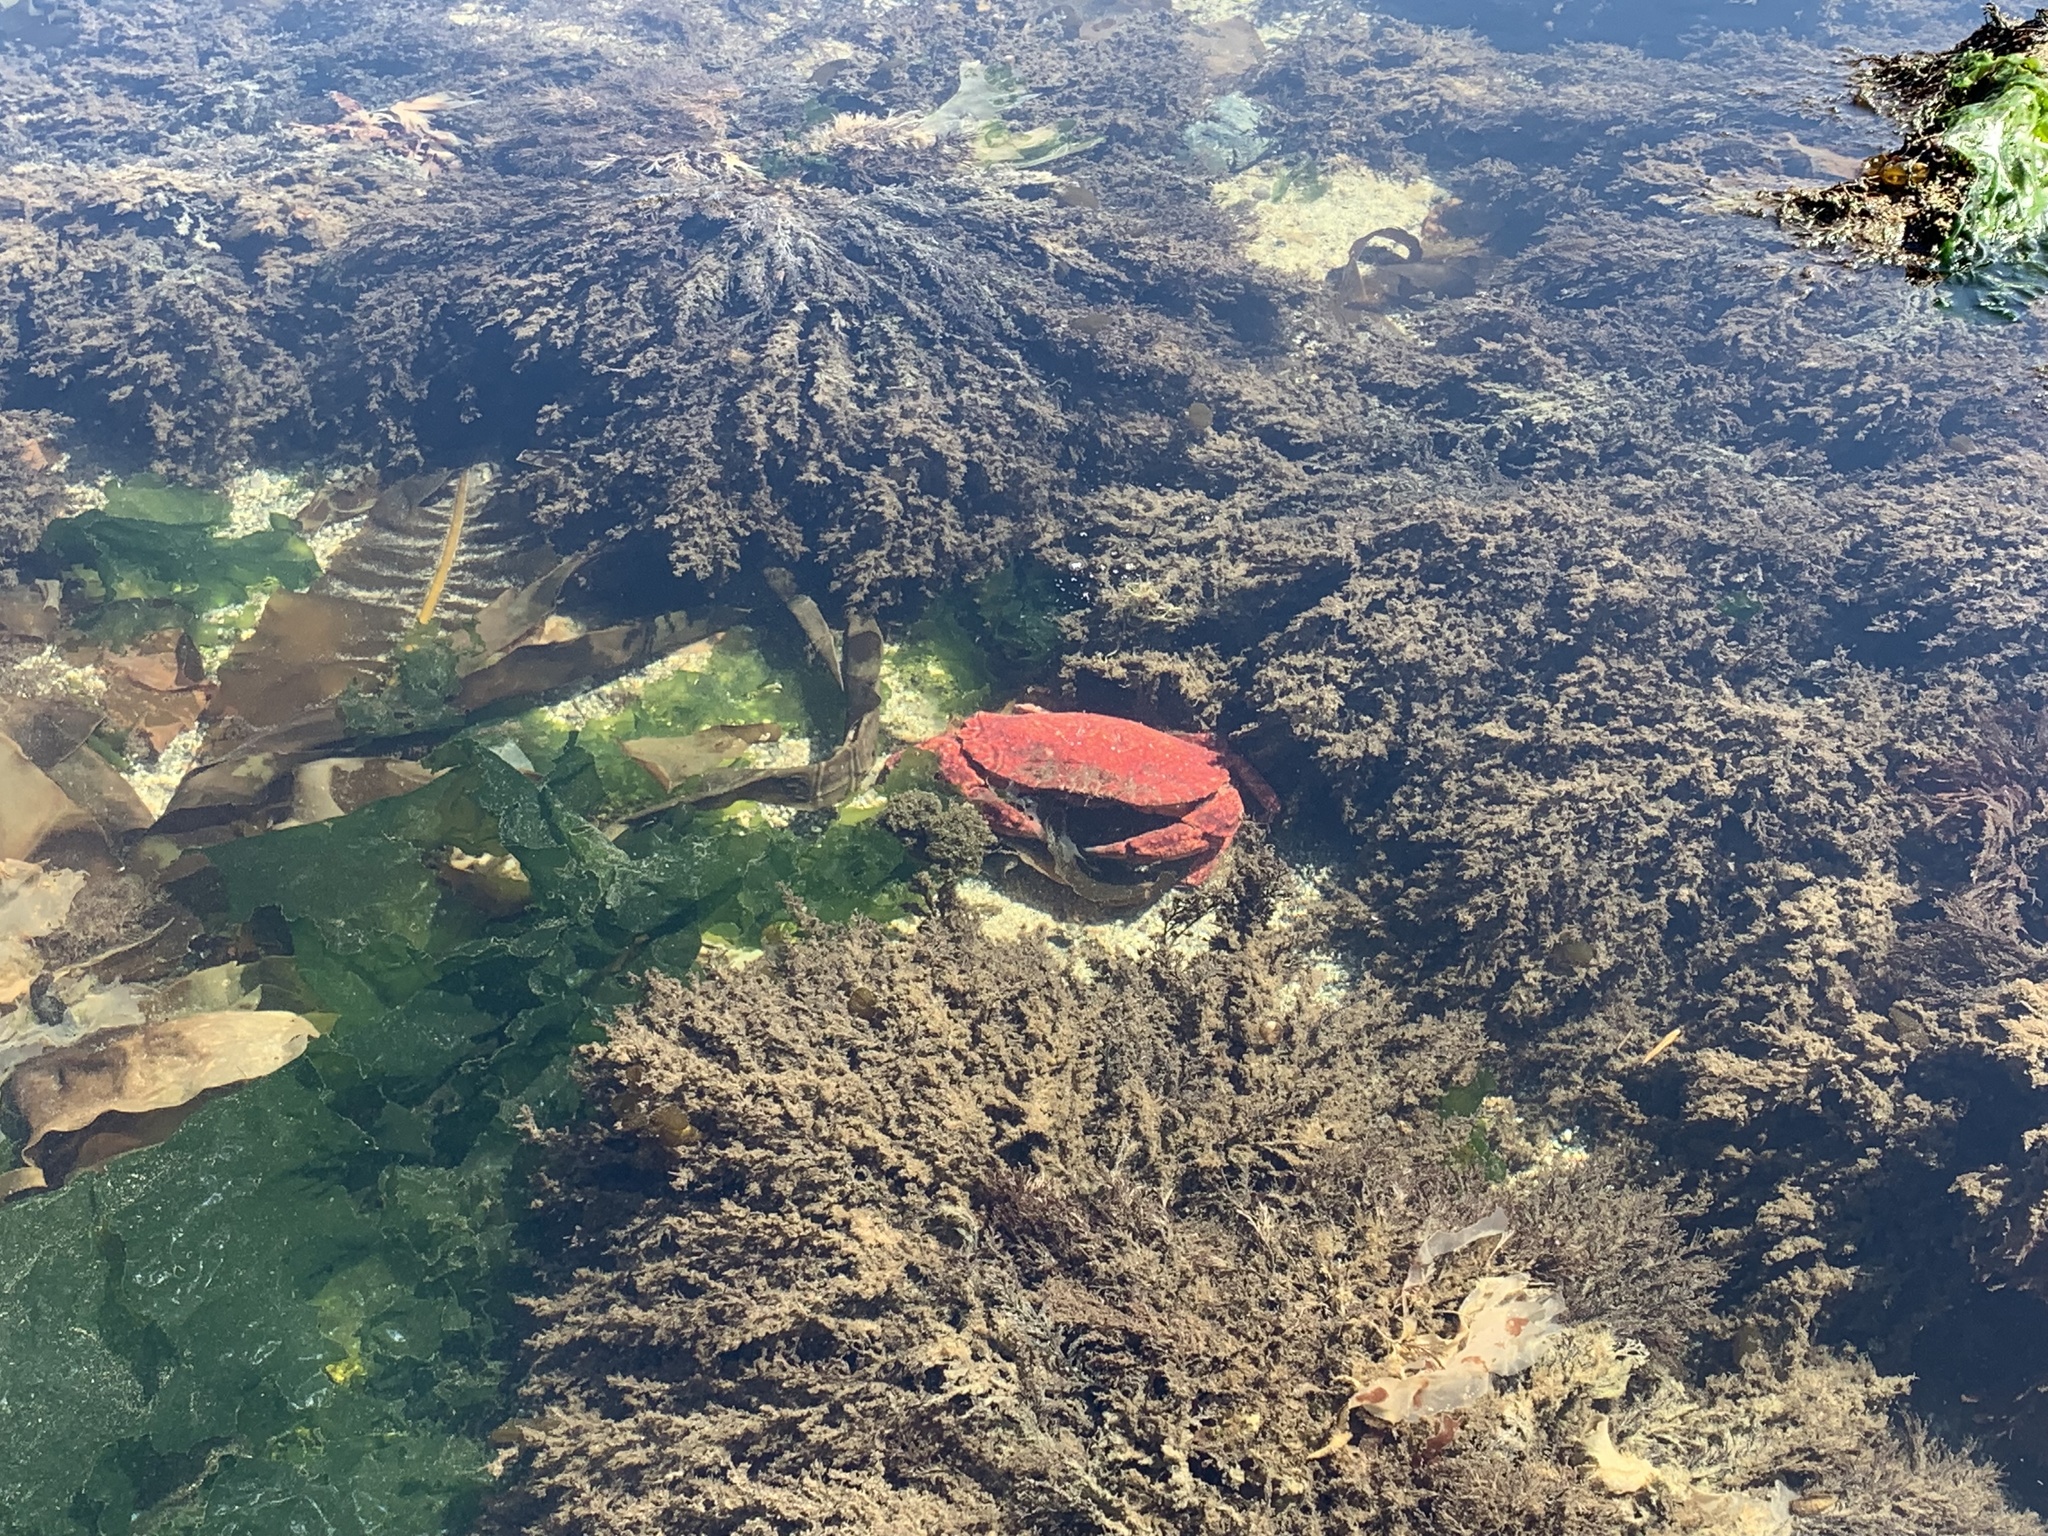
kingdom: Animalia
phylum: Arthropoda
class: Malacostraca
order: Decapoda
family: Cancridae
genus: Cancer
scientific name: Cancer productus
